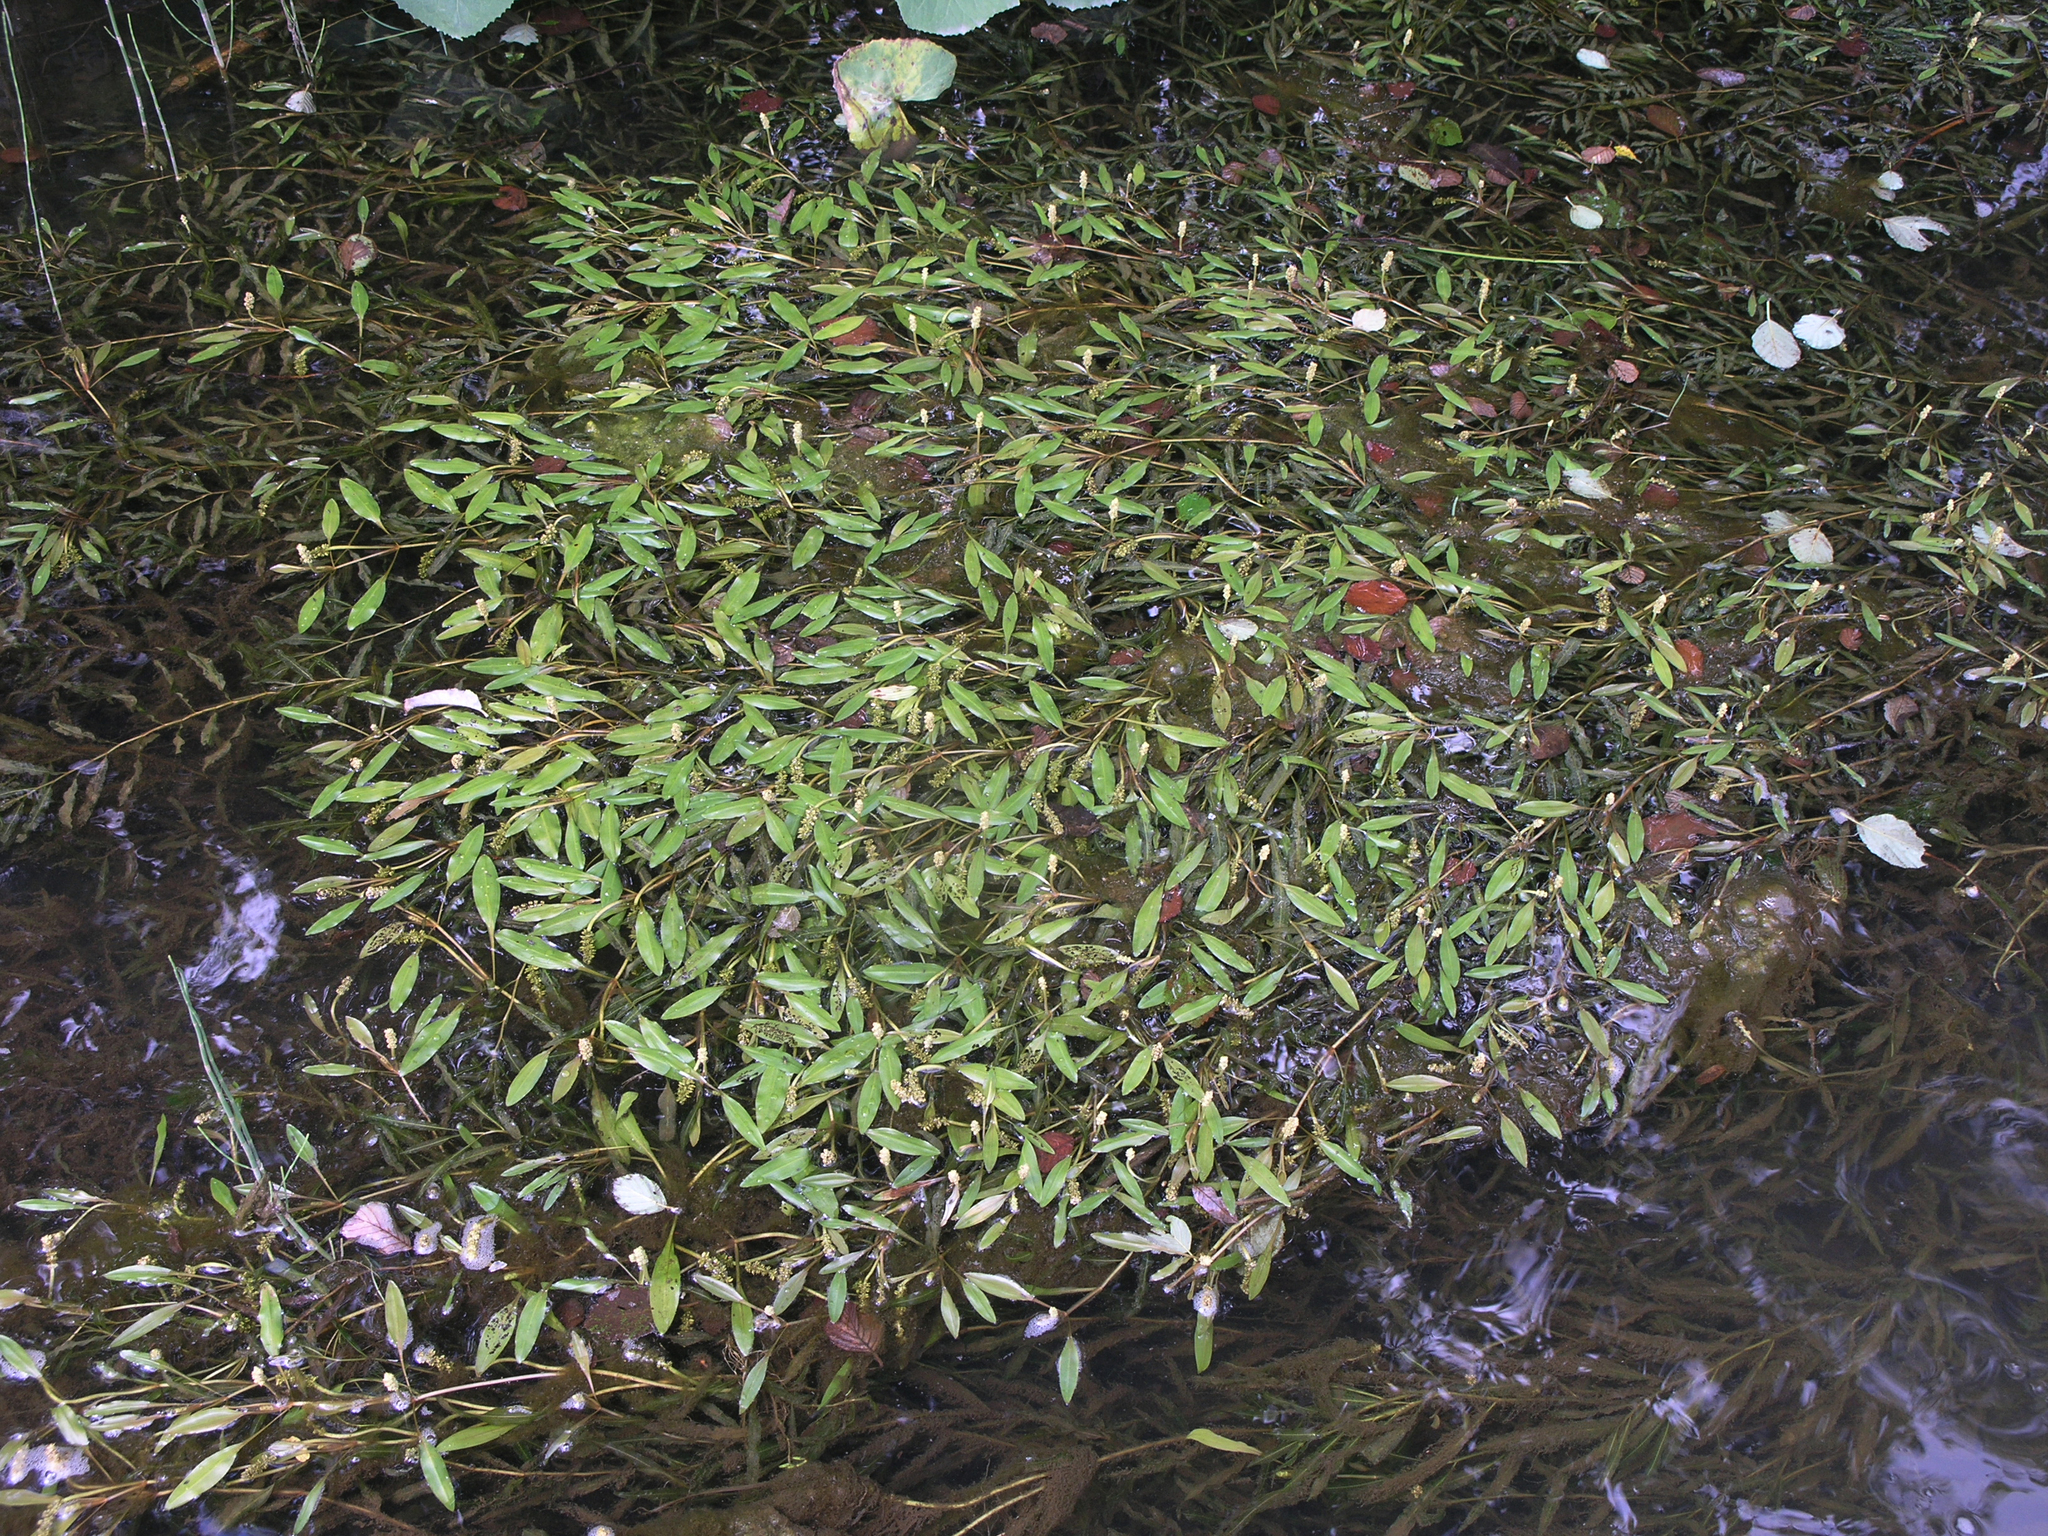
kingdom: Plantae
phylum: Tracheophyta
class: Liliopsida
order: Alismatales
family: Potamogetonaceae
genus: Potamogeton
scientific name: Potamogeton alpinus
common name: Red pondweed
